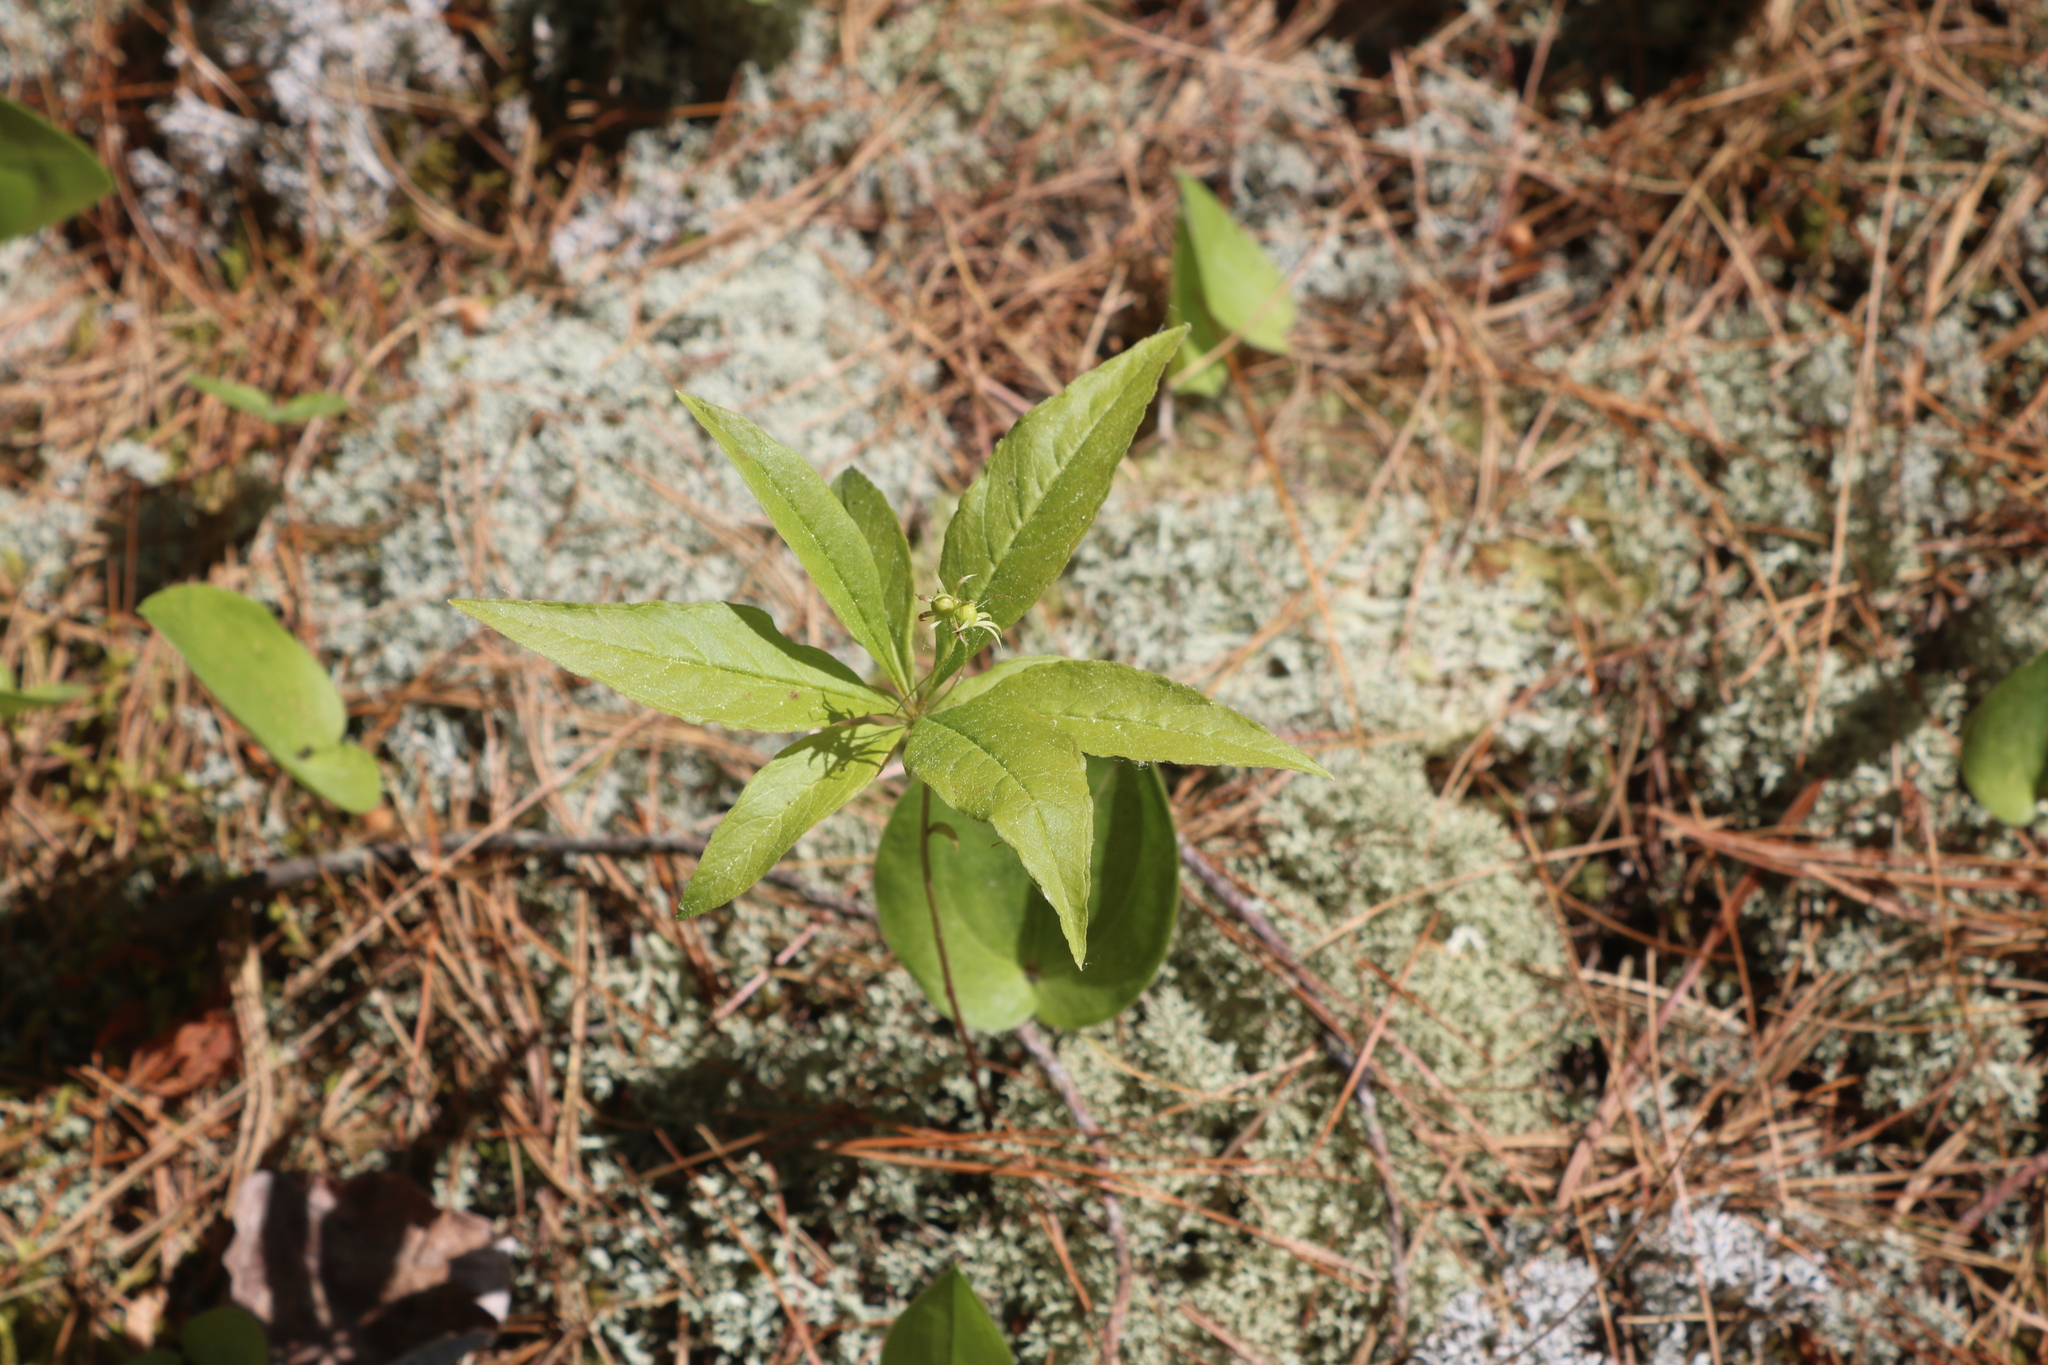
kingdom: Plantae
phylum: Tracheophyta
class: Magnoliopsida
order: Ericales
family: Primulaceae
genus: Lysimachia
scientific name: Lysimachia borealis
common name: American starflower
